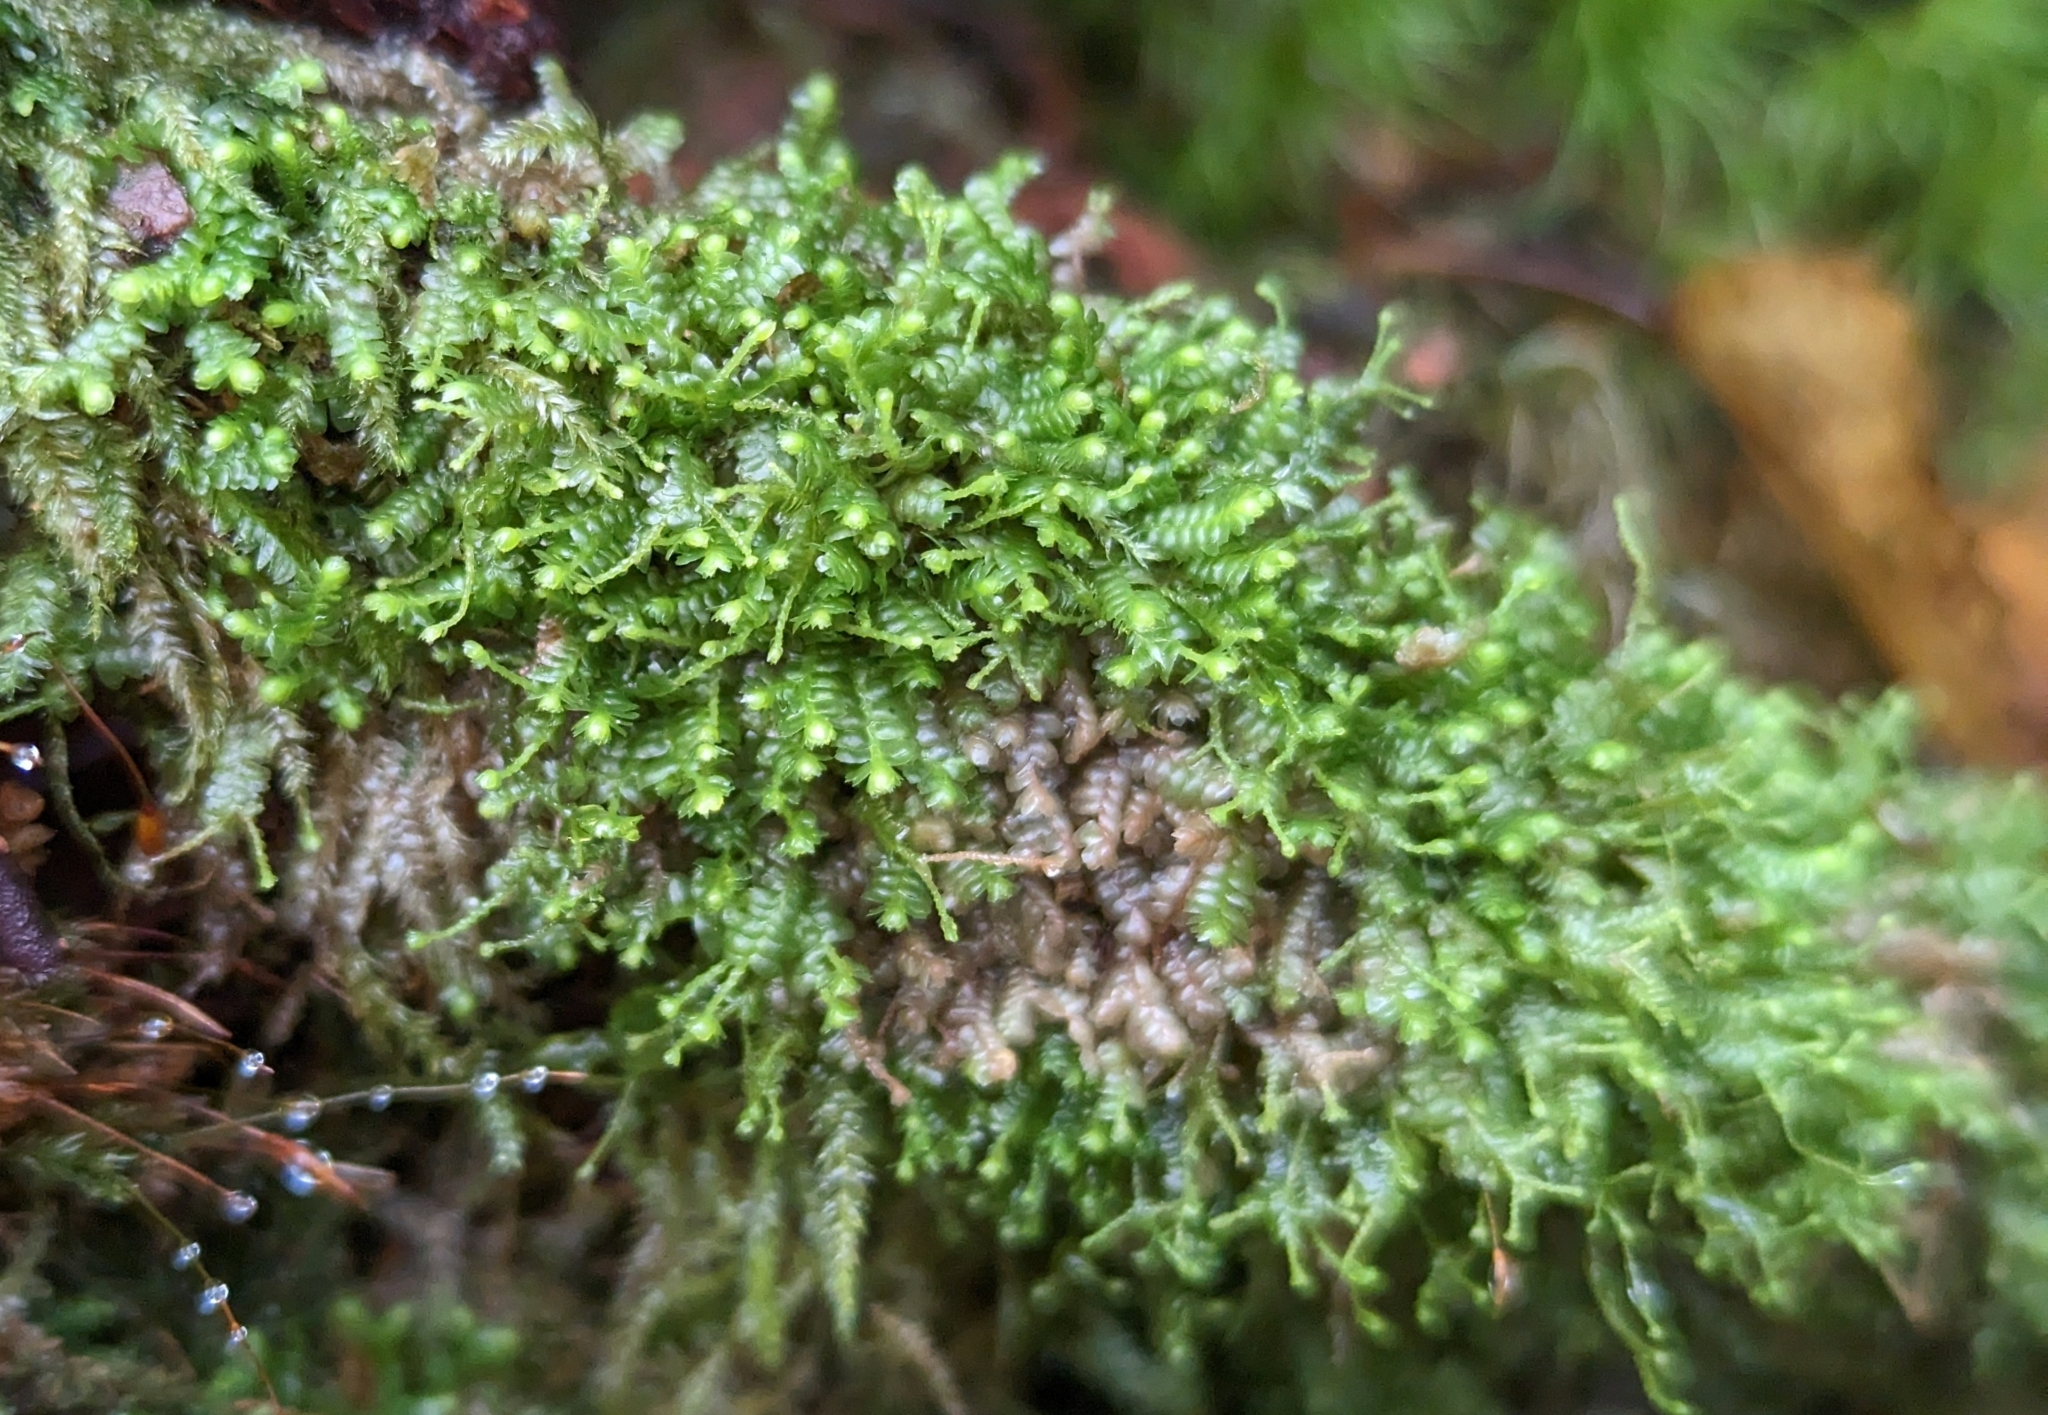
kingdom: Plantae
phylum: Marchantiophyta
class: Jungermanniopsida
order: Jungermanniales
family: Lepidoziaceae
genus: Bazzania
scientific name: Bazzania denudata
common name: Naked whipwort
